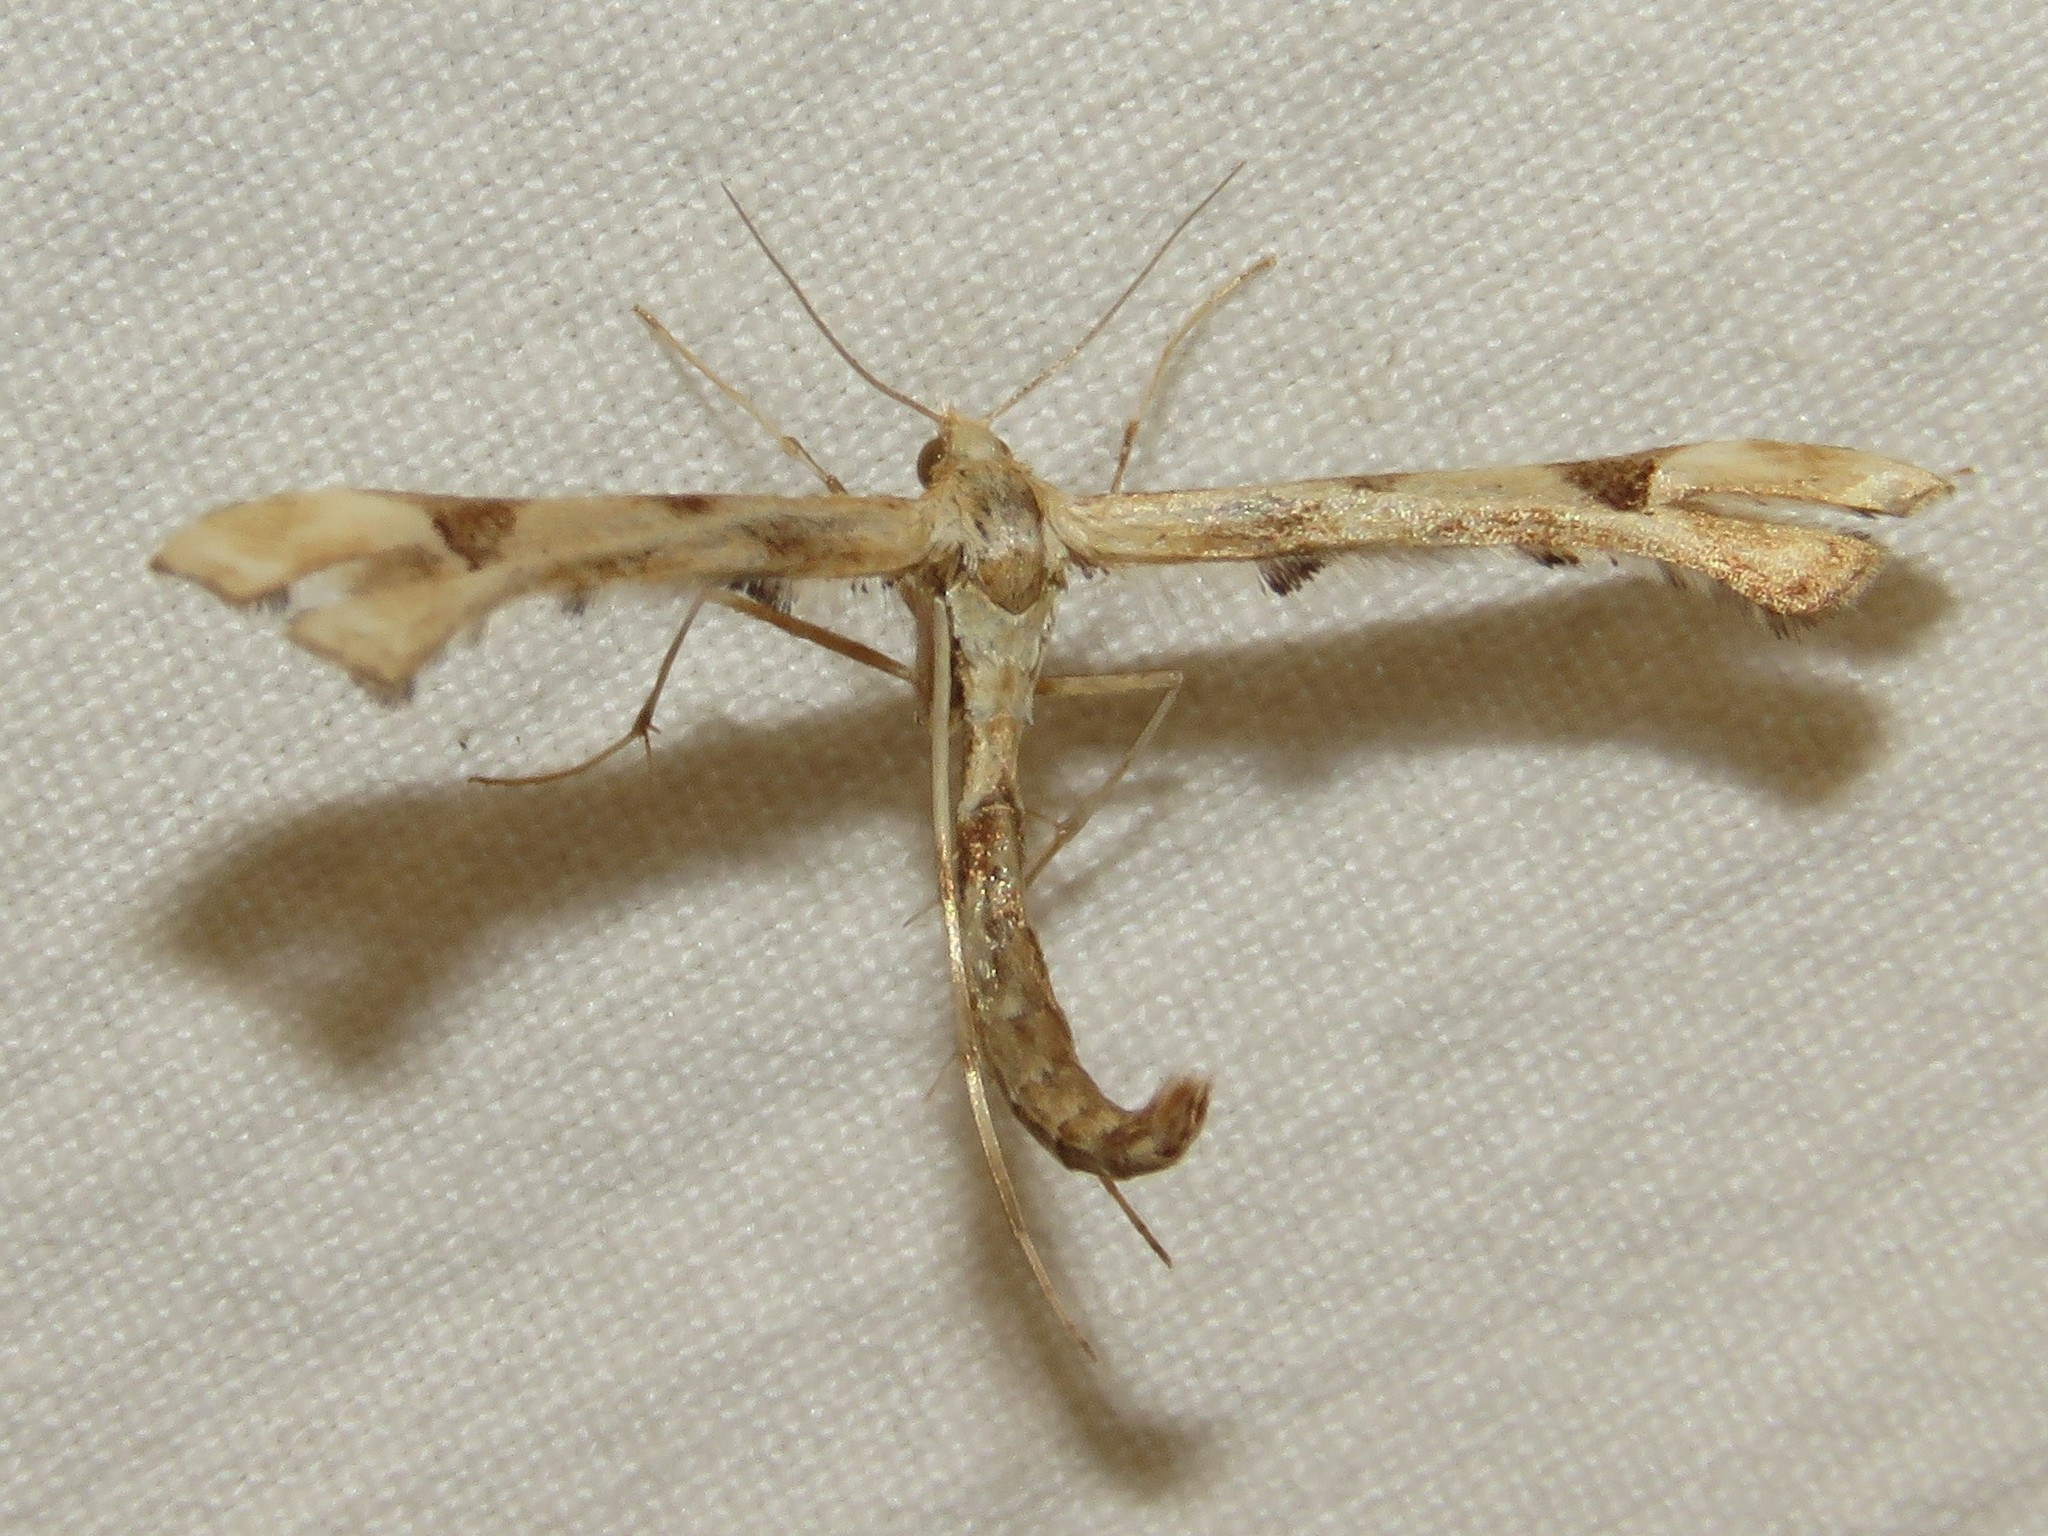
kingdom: Animalia
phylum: Arthropoda
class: Insecta
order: Lepidoptera
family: Pterophoridae
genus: Platyptilia
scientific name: Platyptilia carduidactylus
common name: Artichoke plume moth
